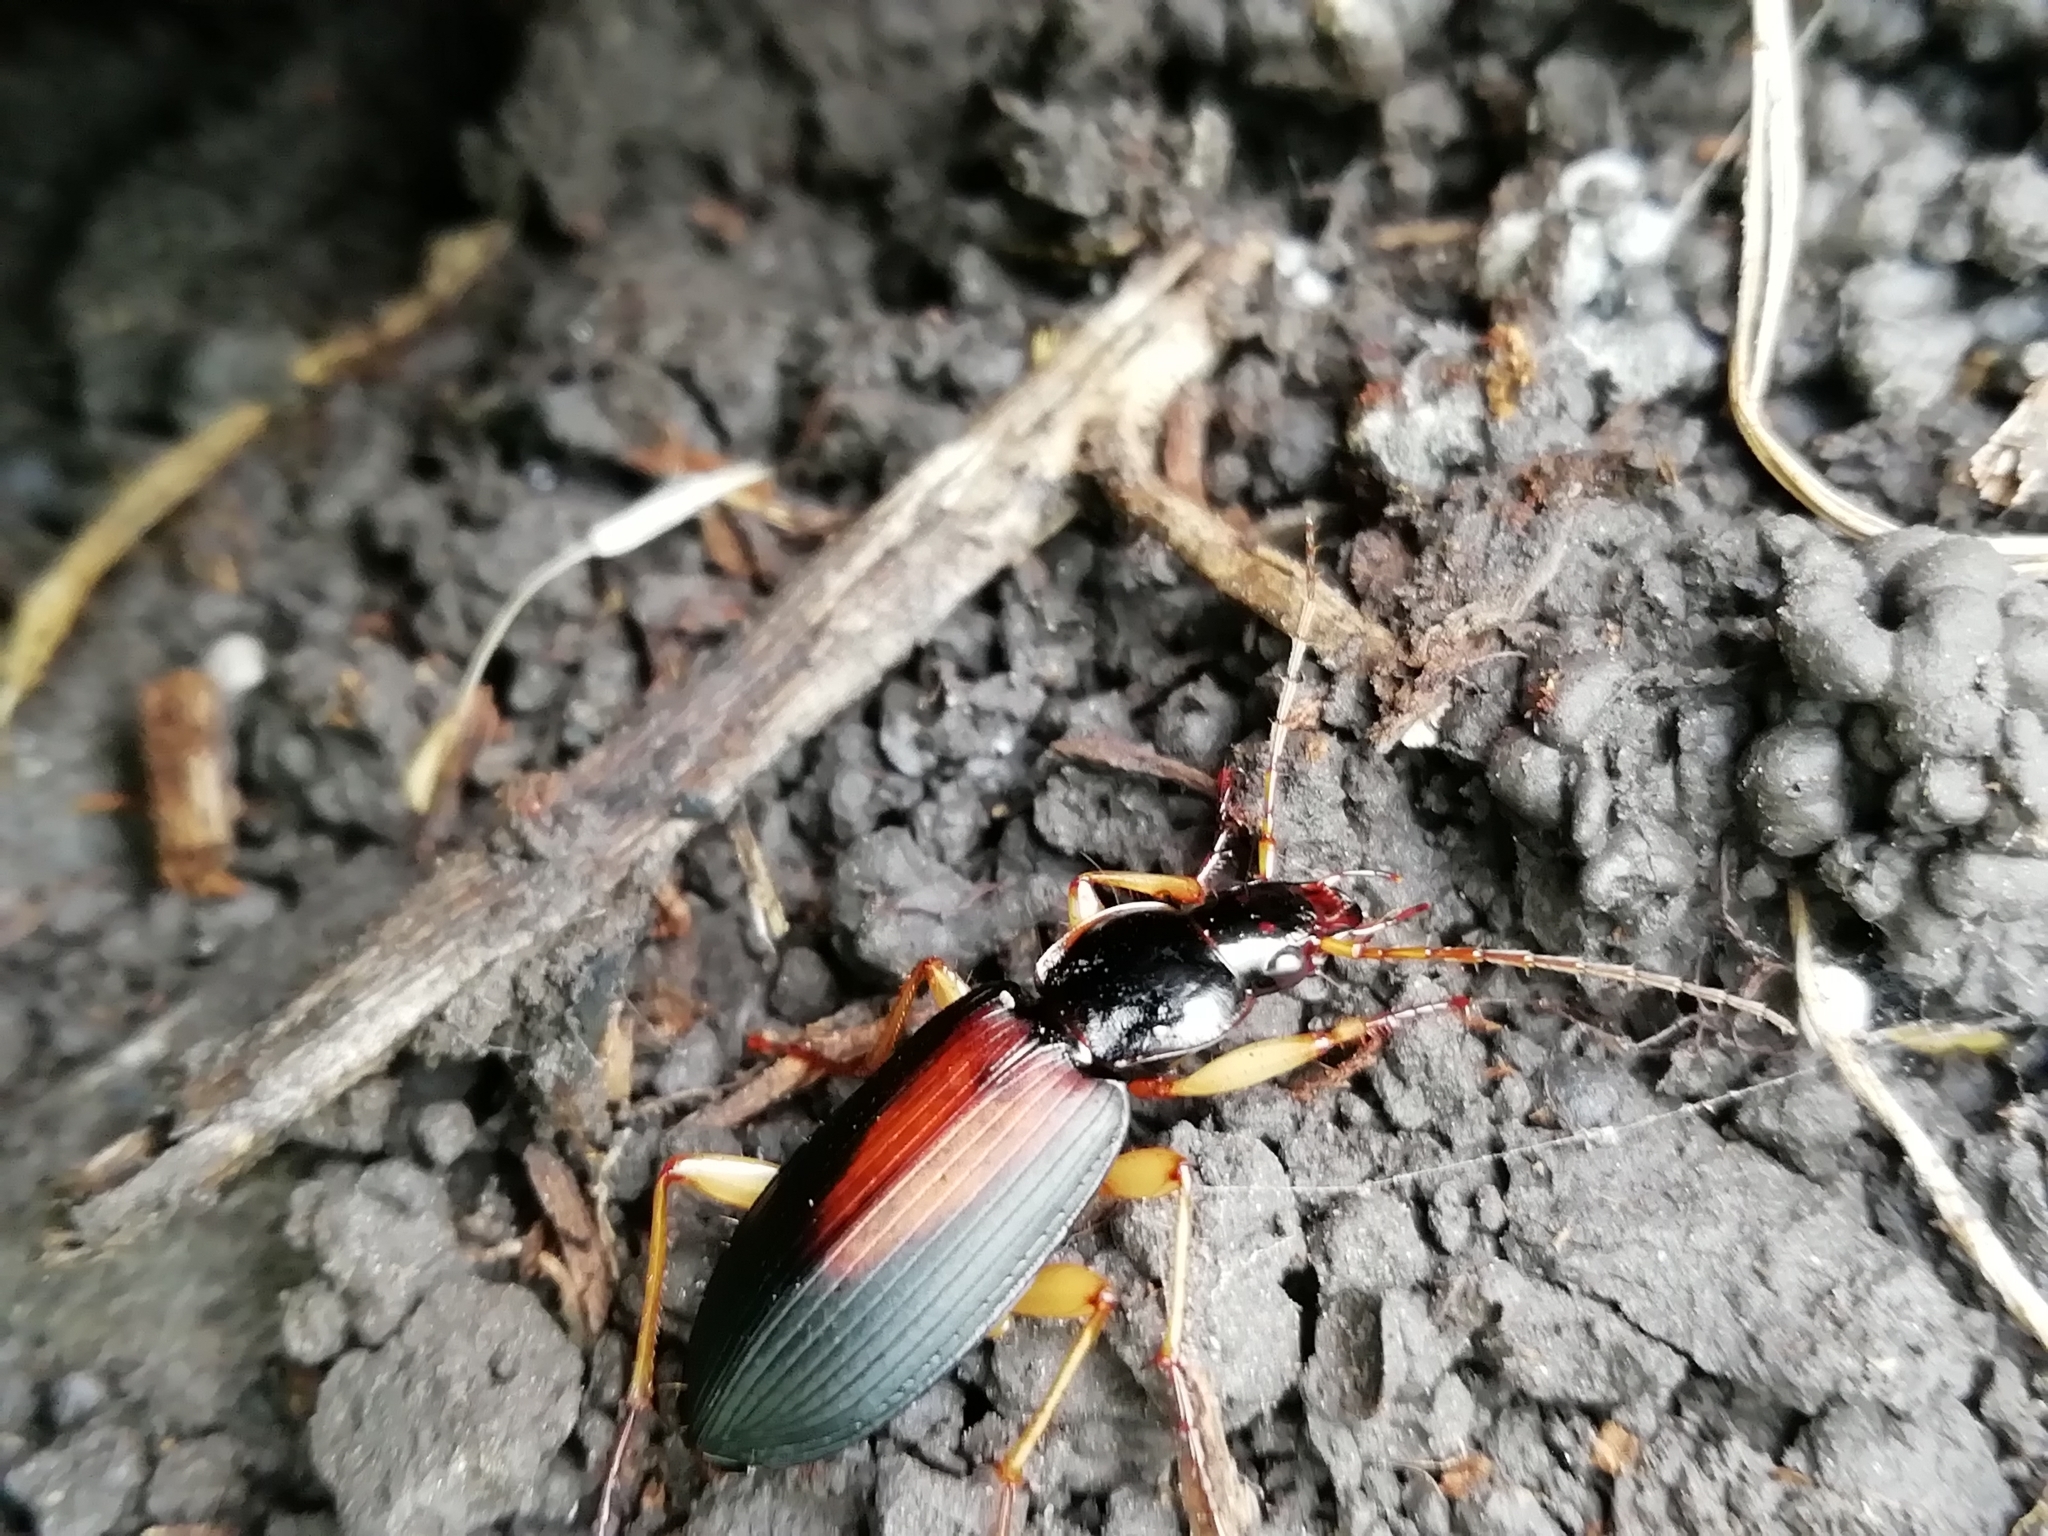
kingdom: Animalia
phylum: Arthropoda
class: Insecta
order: Coleoptera
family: Carabidae
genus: Dolichus
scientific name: Dolichus halensis
